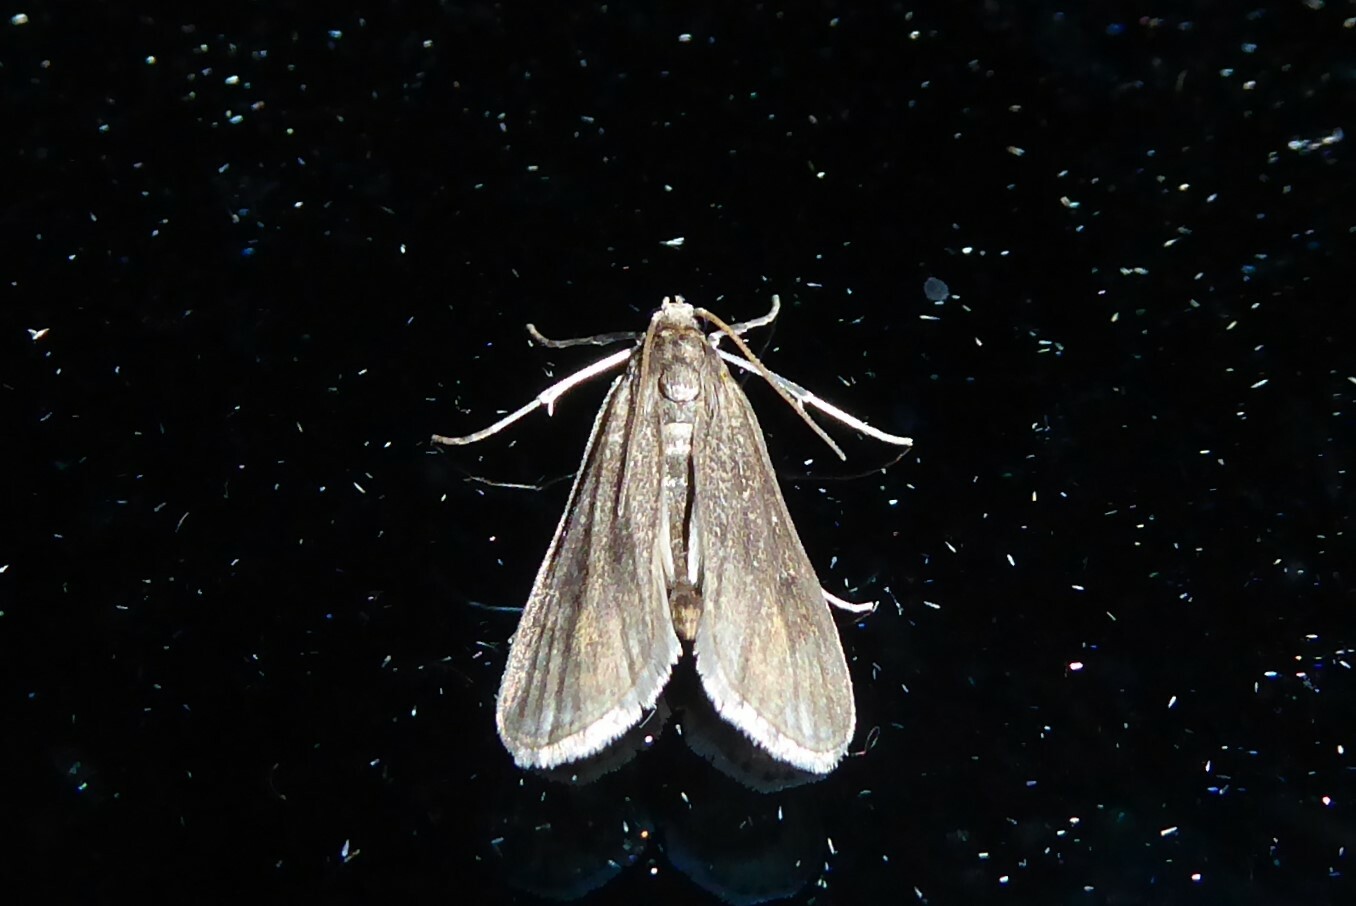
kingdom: Animalia
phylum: Arthropoda
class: Insecta
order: Lepidoptera
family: Crambidae
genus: Hygraula
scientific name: Hygraula nitens
